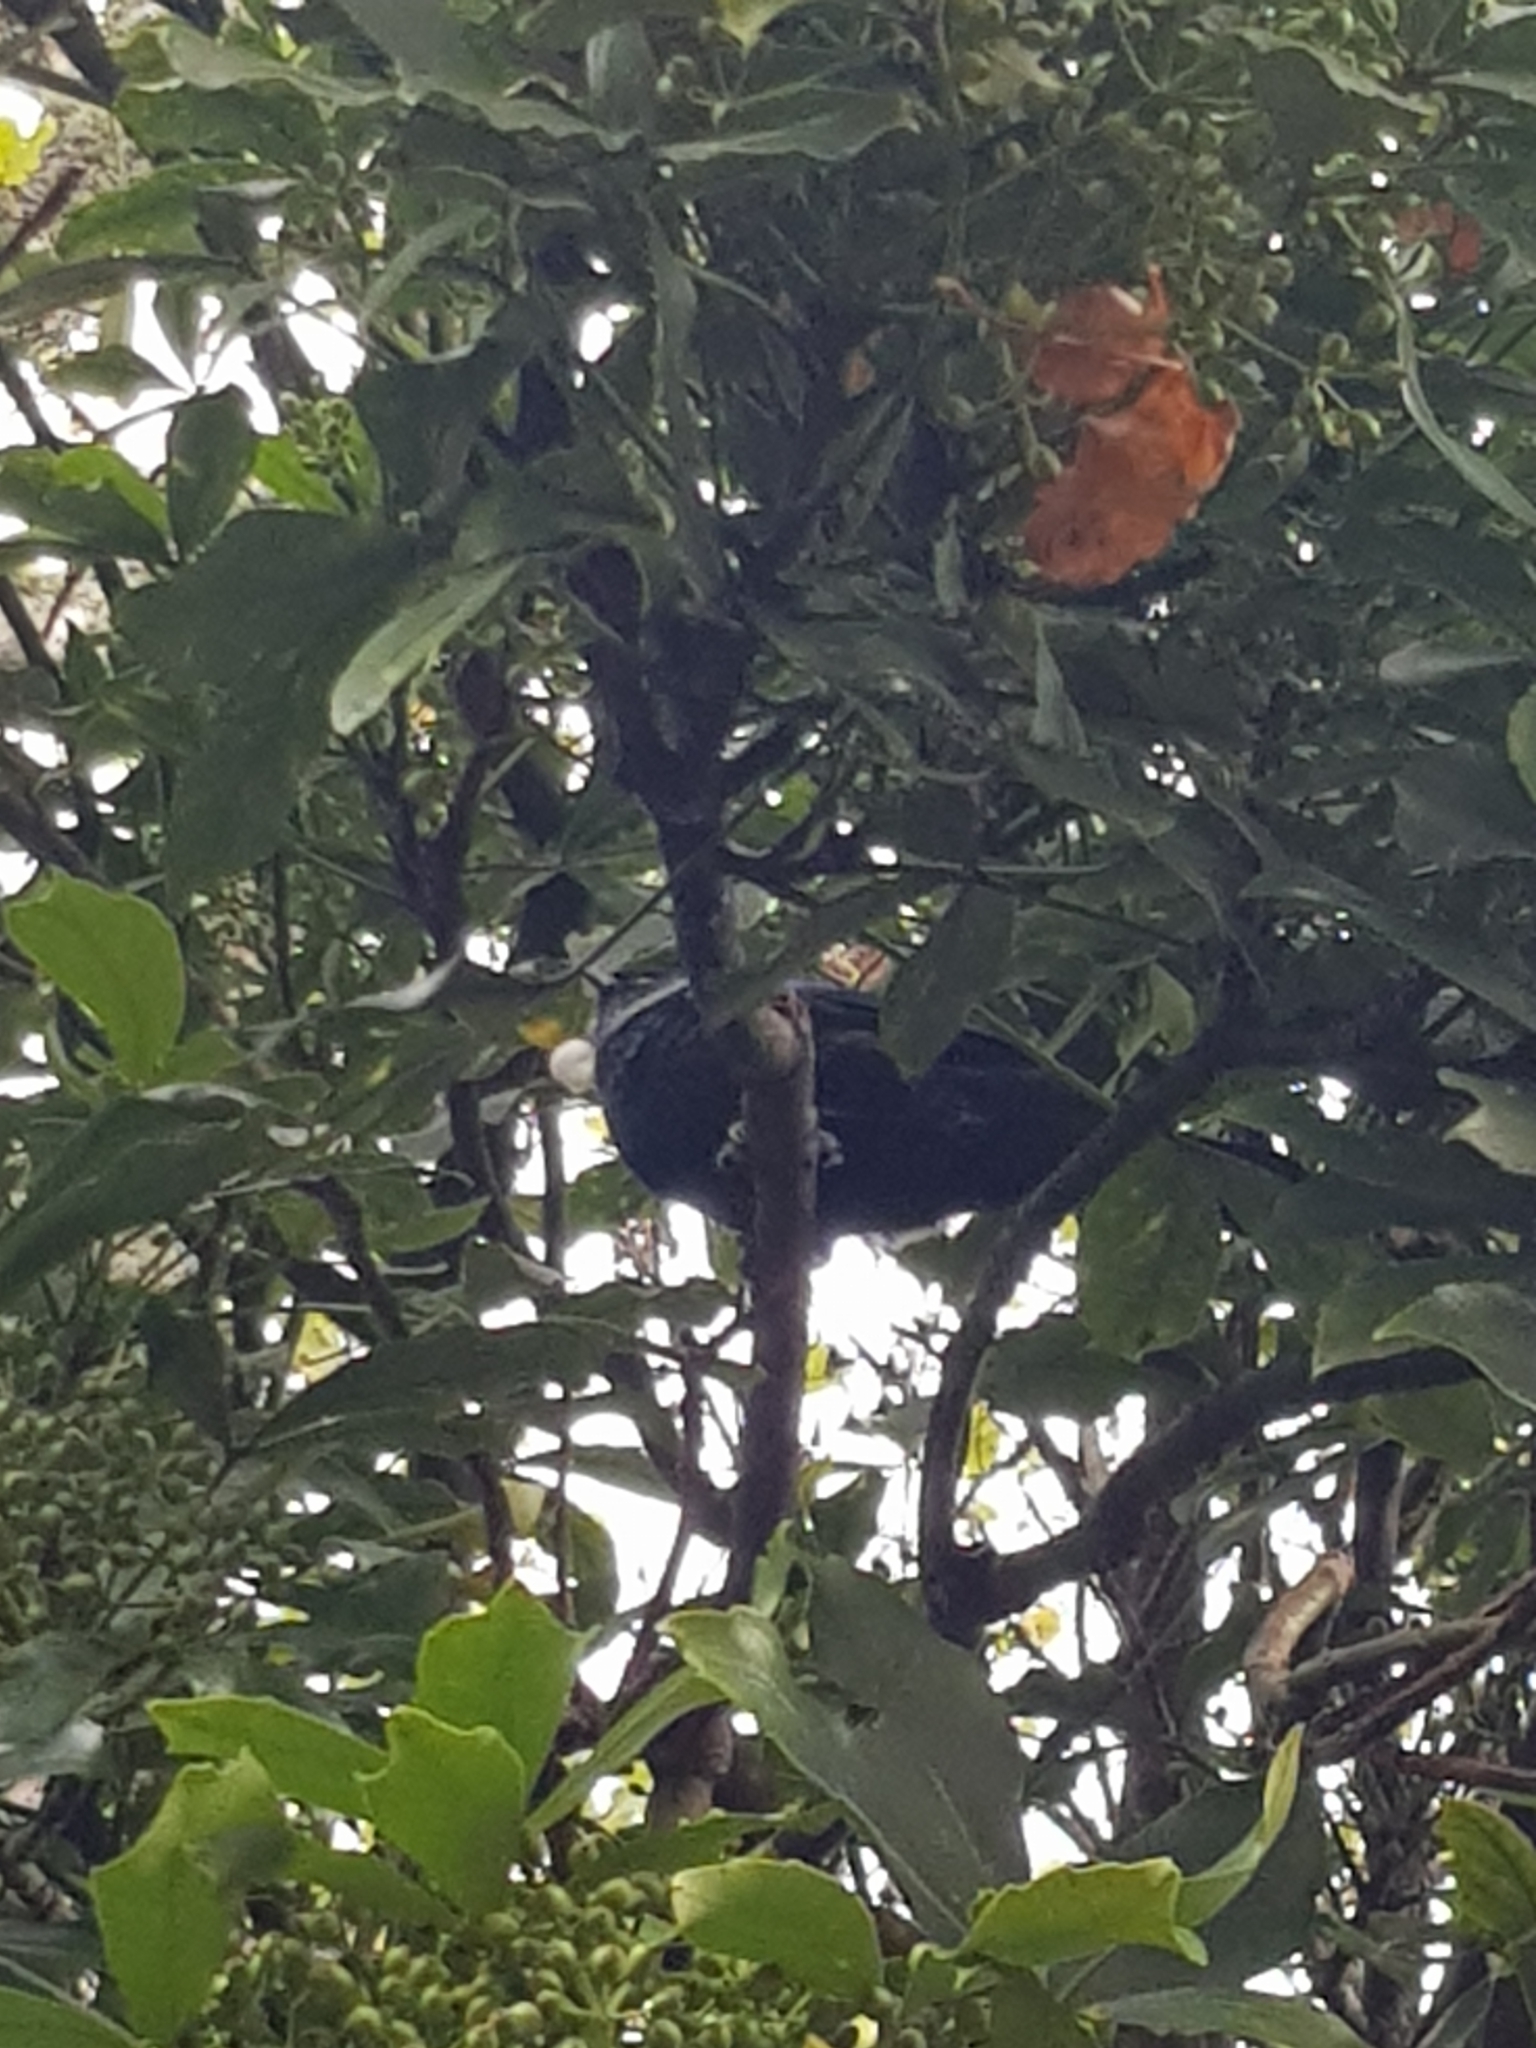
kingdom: Animalia
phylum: Chordata
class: Aves
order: Passeriformes
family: Meliphagidae
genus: Prosthemadera
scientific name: Prosthemadera novaeseelandiae
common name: Tui
